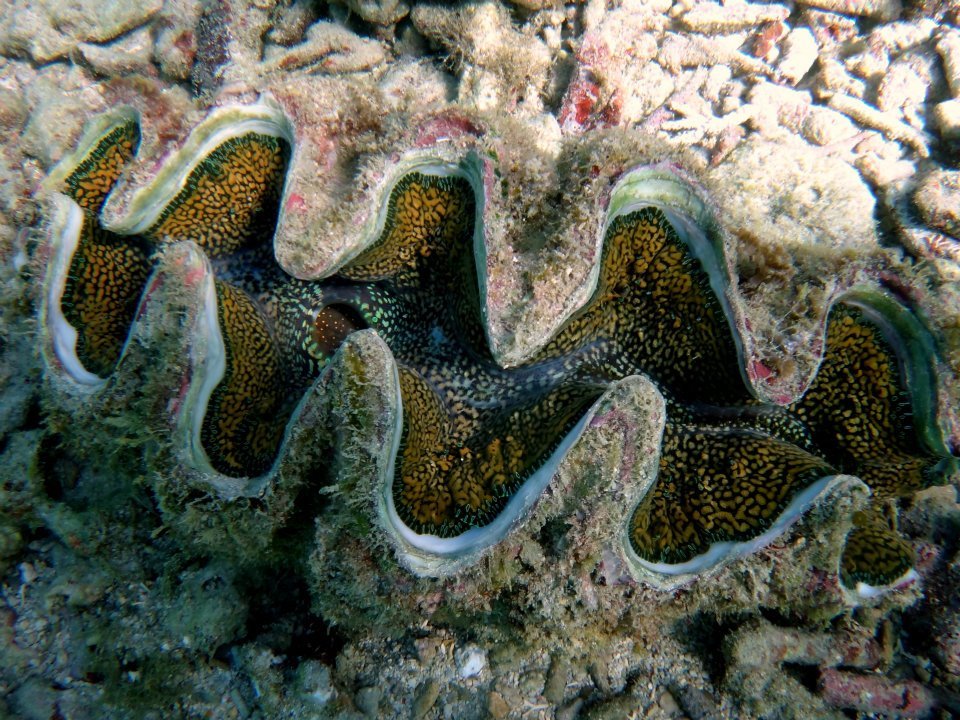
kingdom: Animalia
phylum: Mollusca
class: Bivalvia
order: Cardiida
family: Cardiidae
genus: Tridacna
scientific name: Tridacna noae
